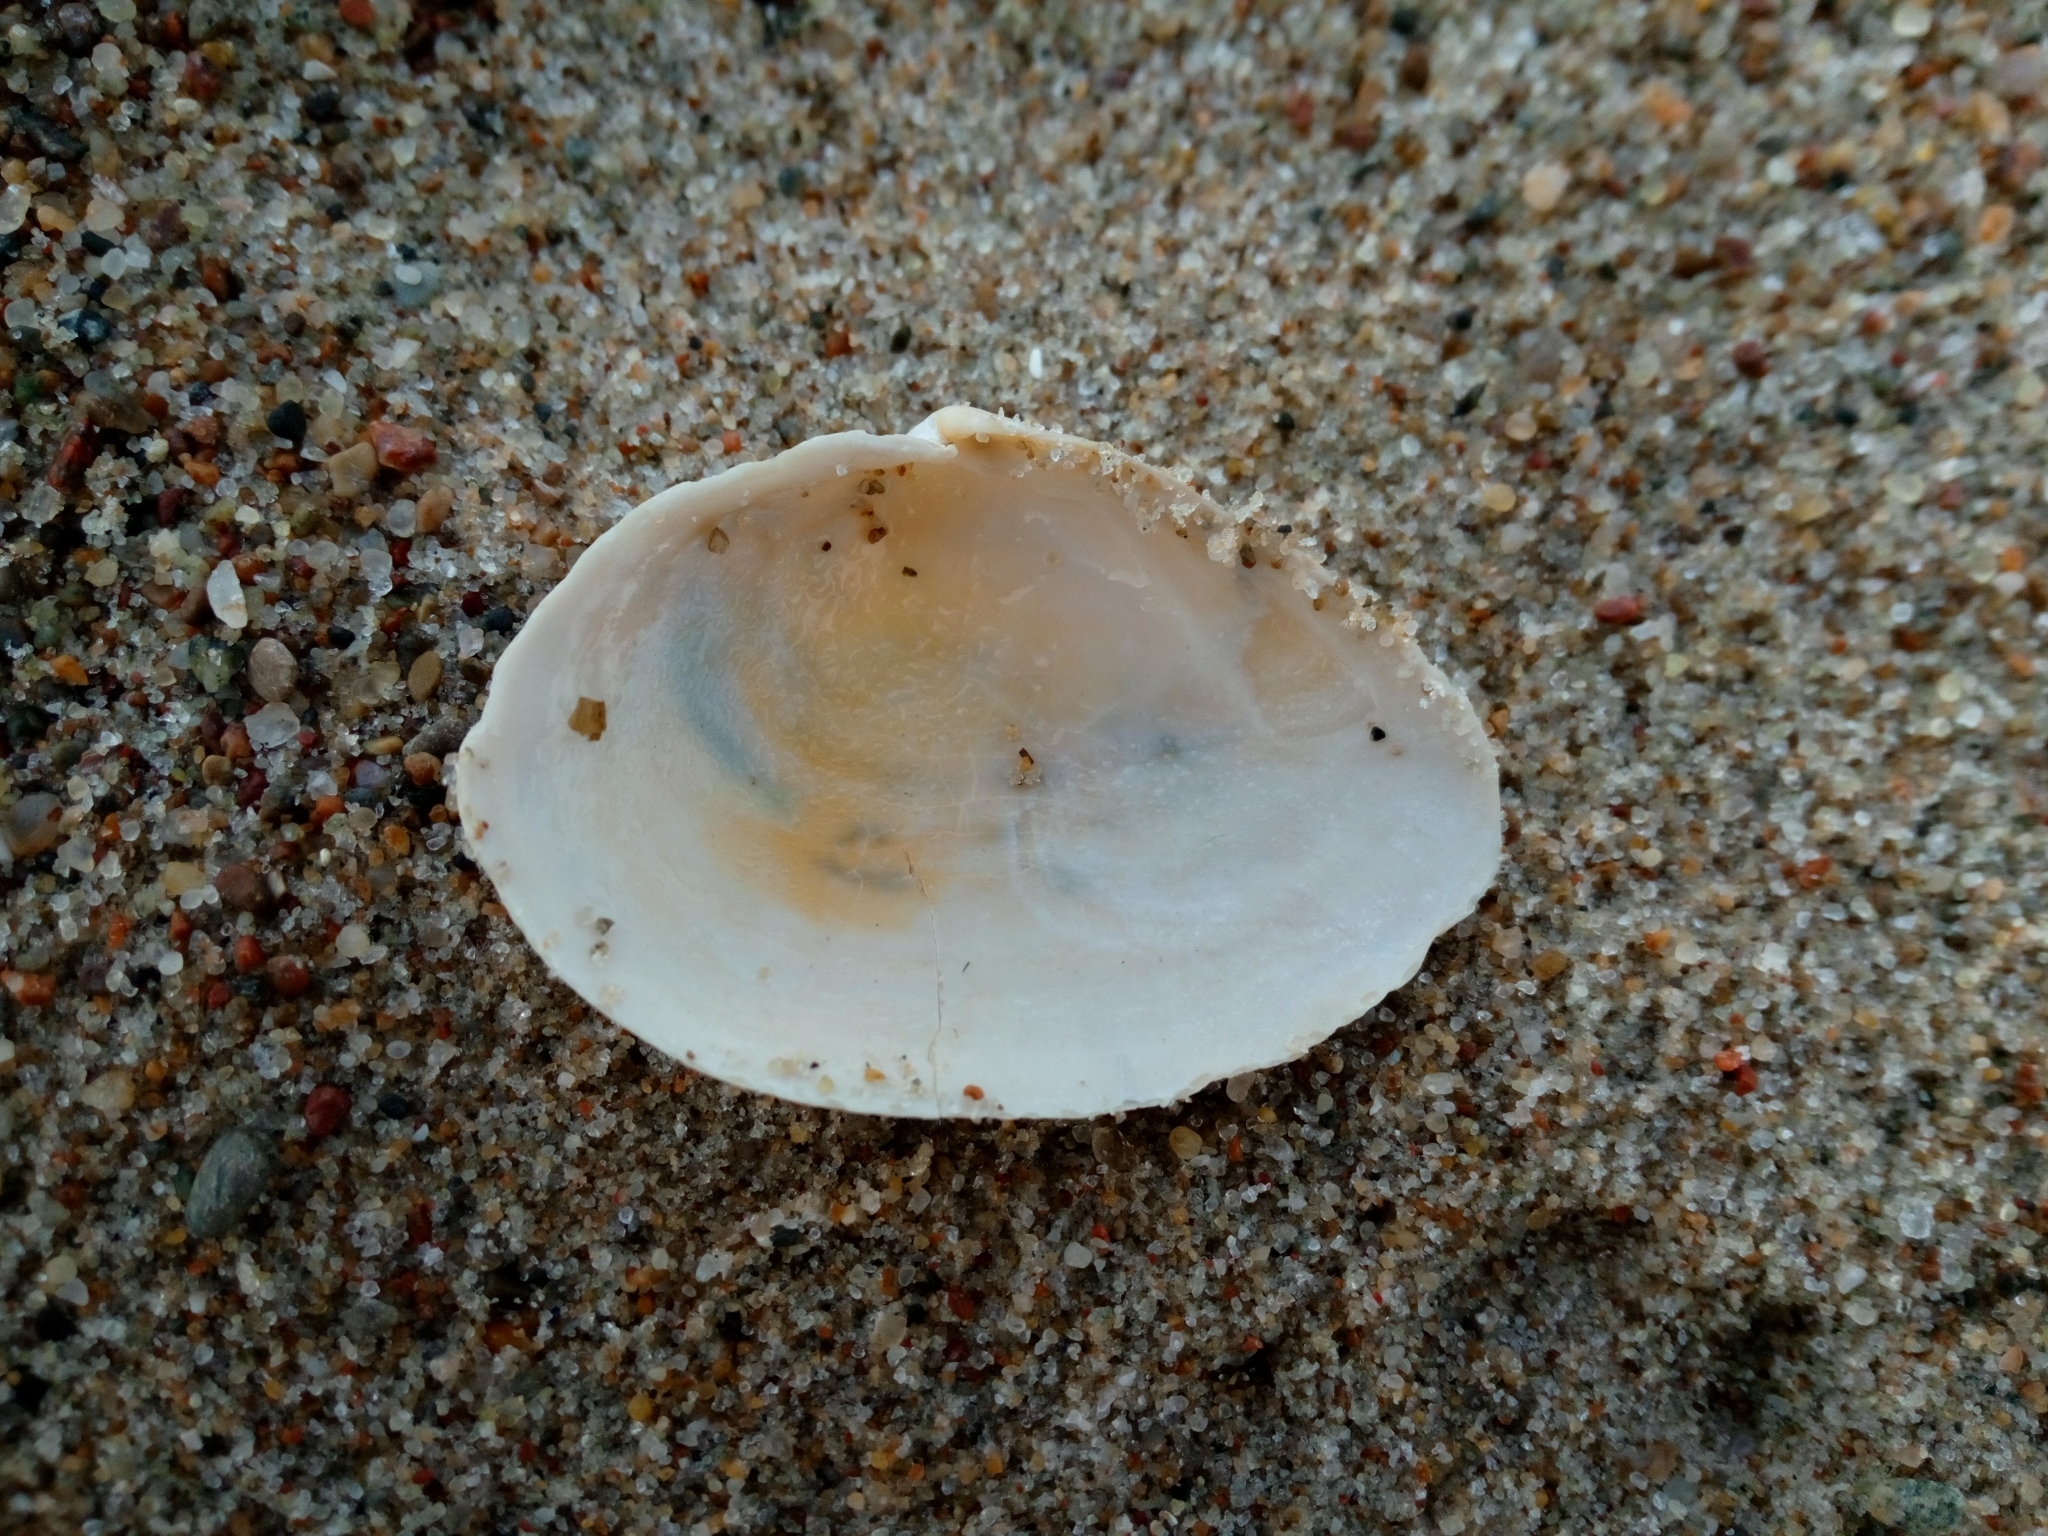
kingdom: Animalia
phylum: Mollusca
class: Bivalvia
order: Myida
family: Myidae
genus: Mya
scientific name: Mya arenaria
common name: Soft-shelled clam
